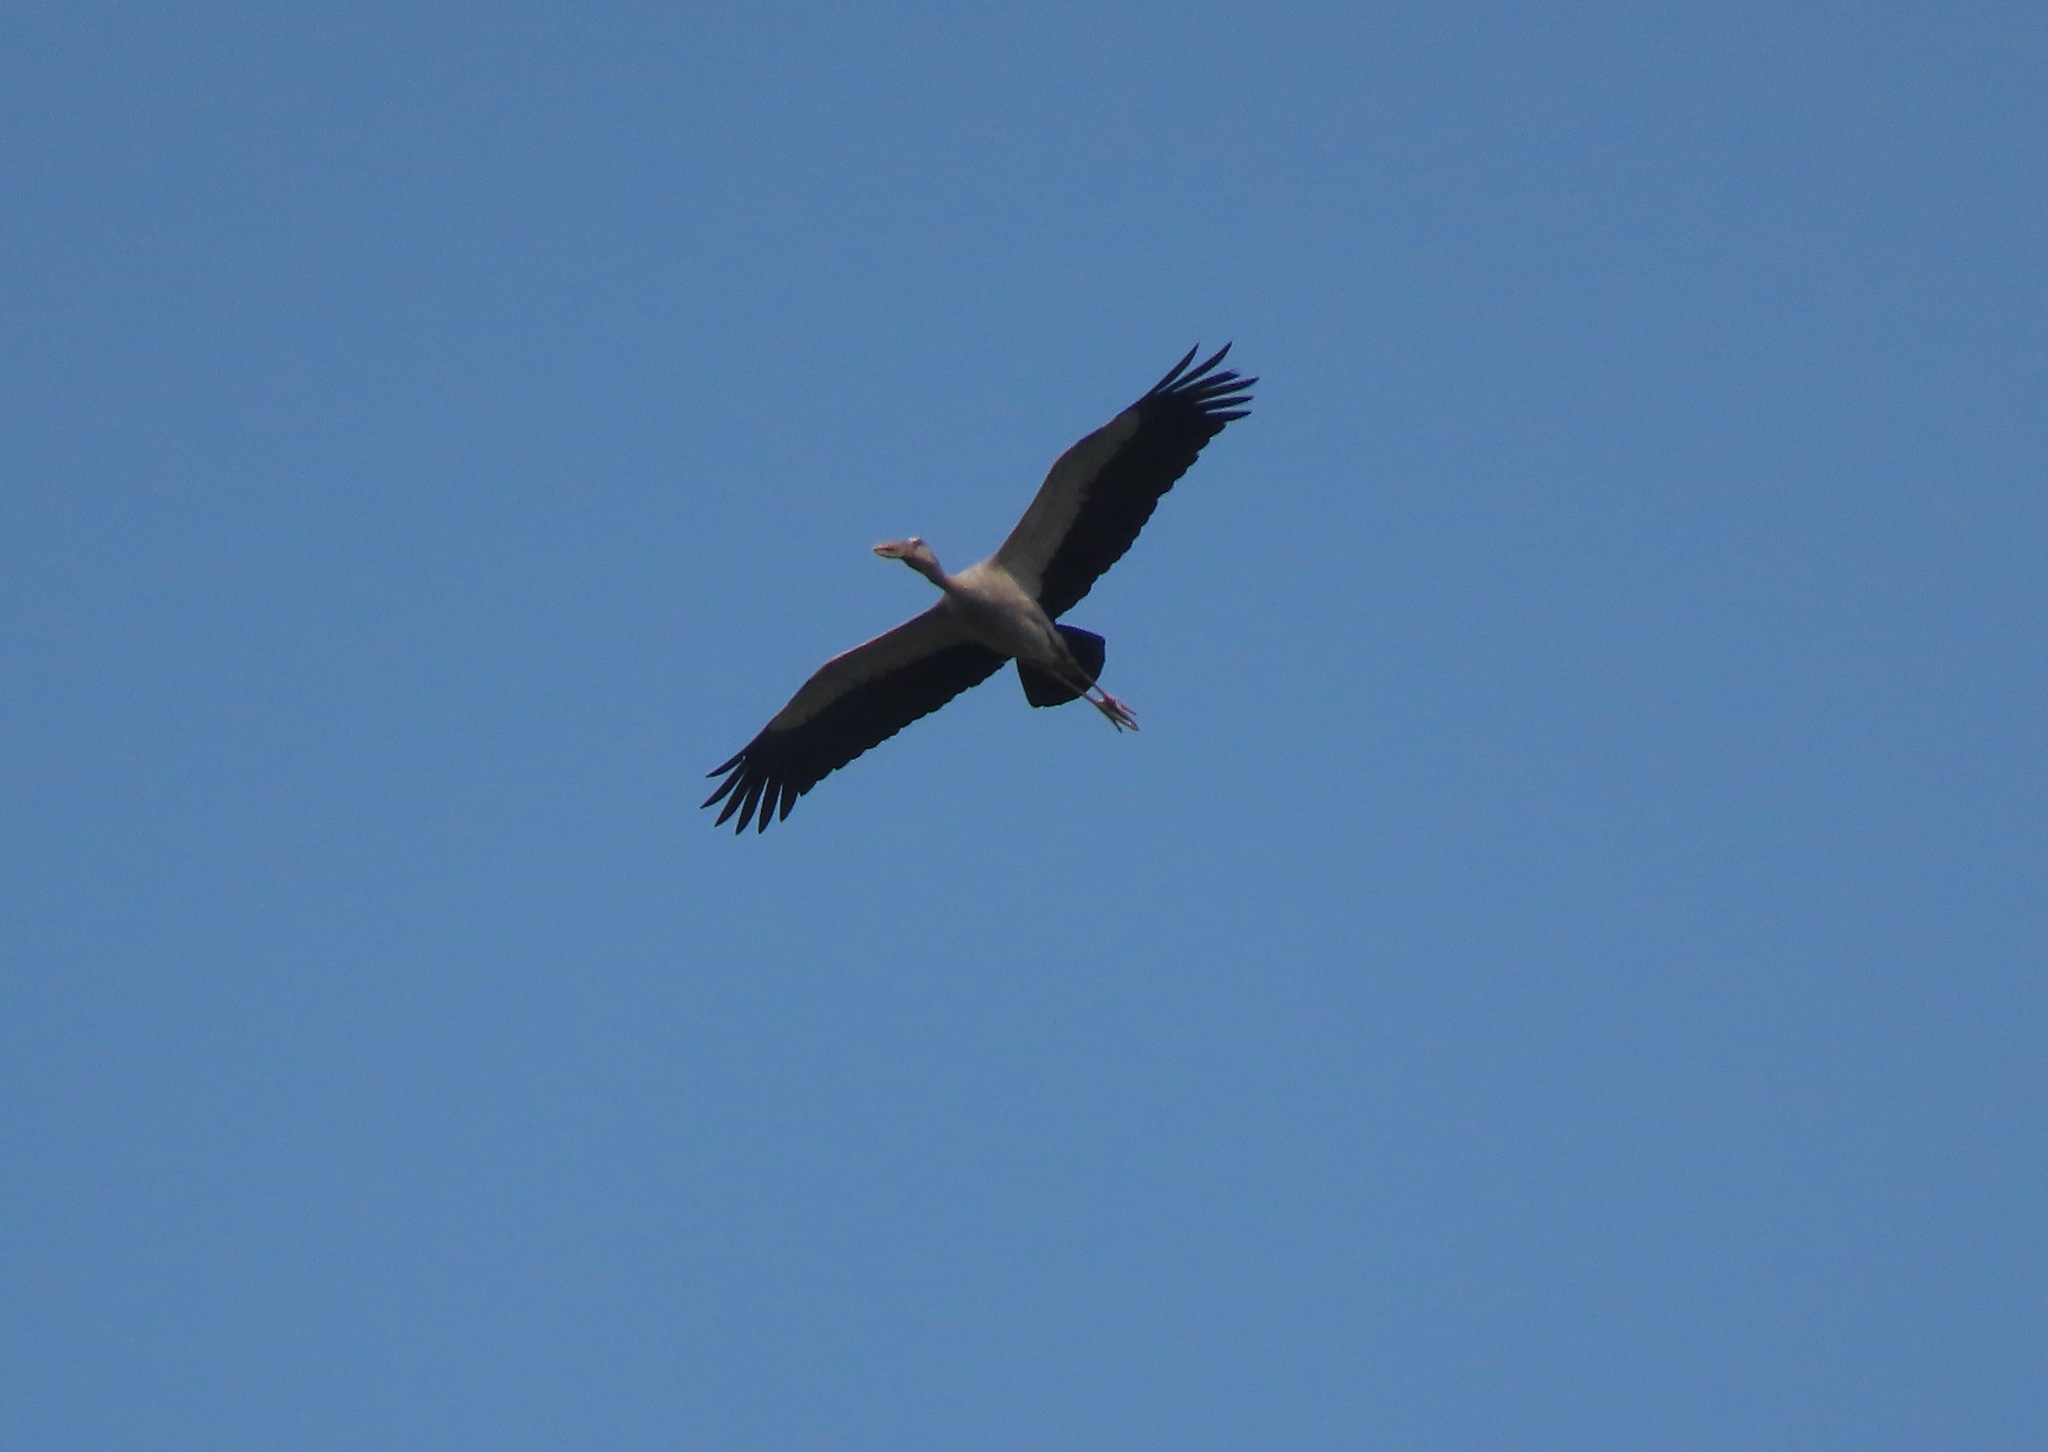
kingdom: Animalia
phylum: Chordata
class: Aves
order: Ciconiiformes
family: Ciconiidae
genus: Anastomus
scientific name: Anastomus oscitans
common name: Asian openbill
